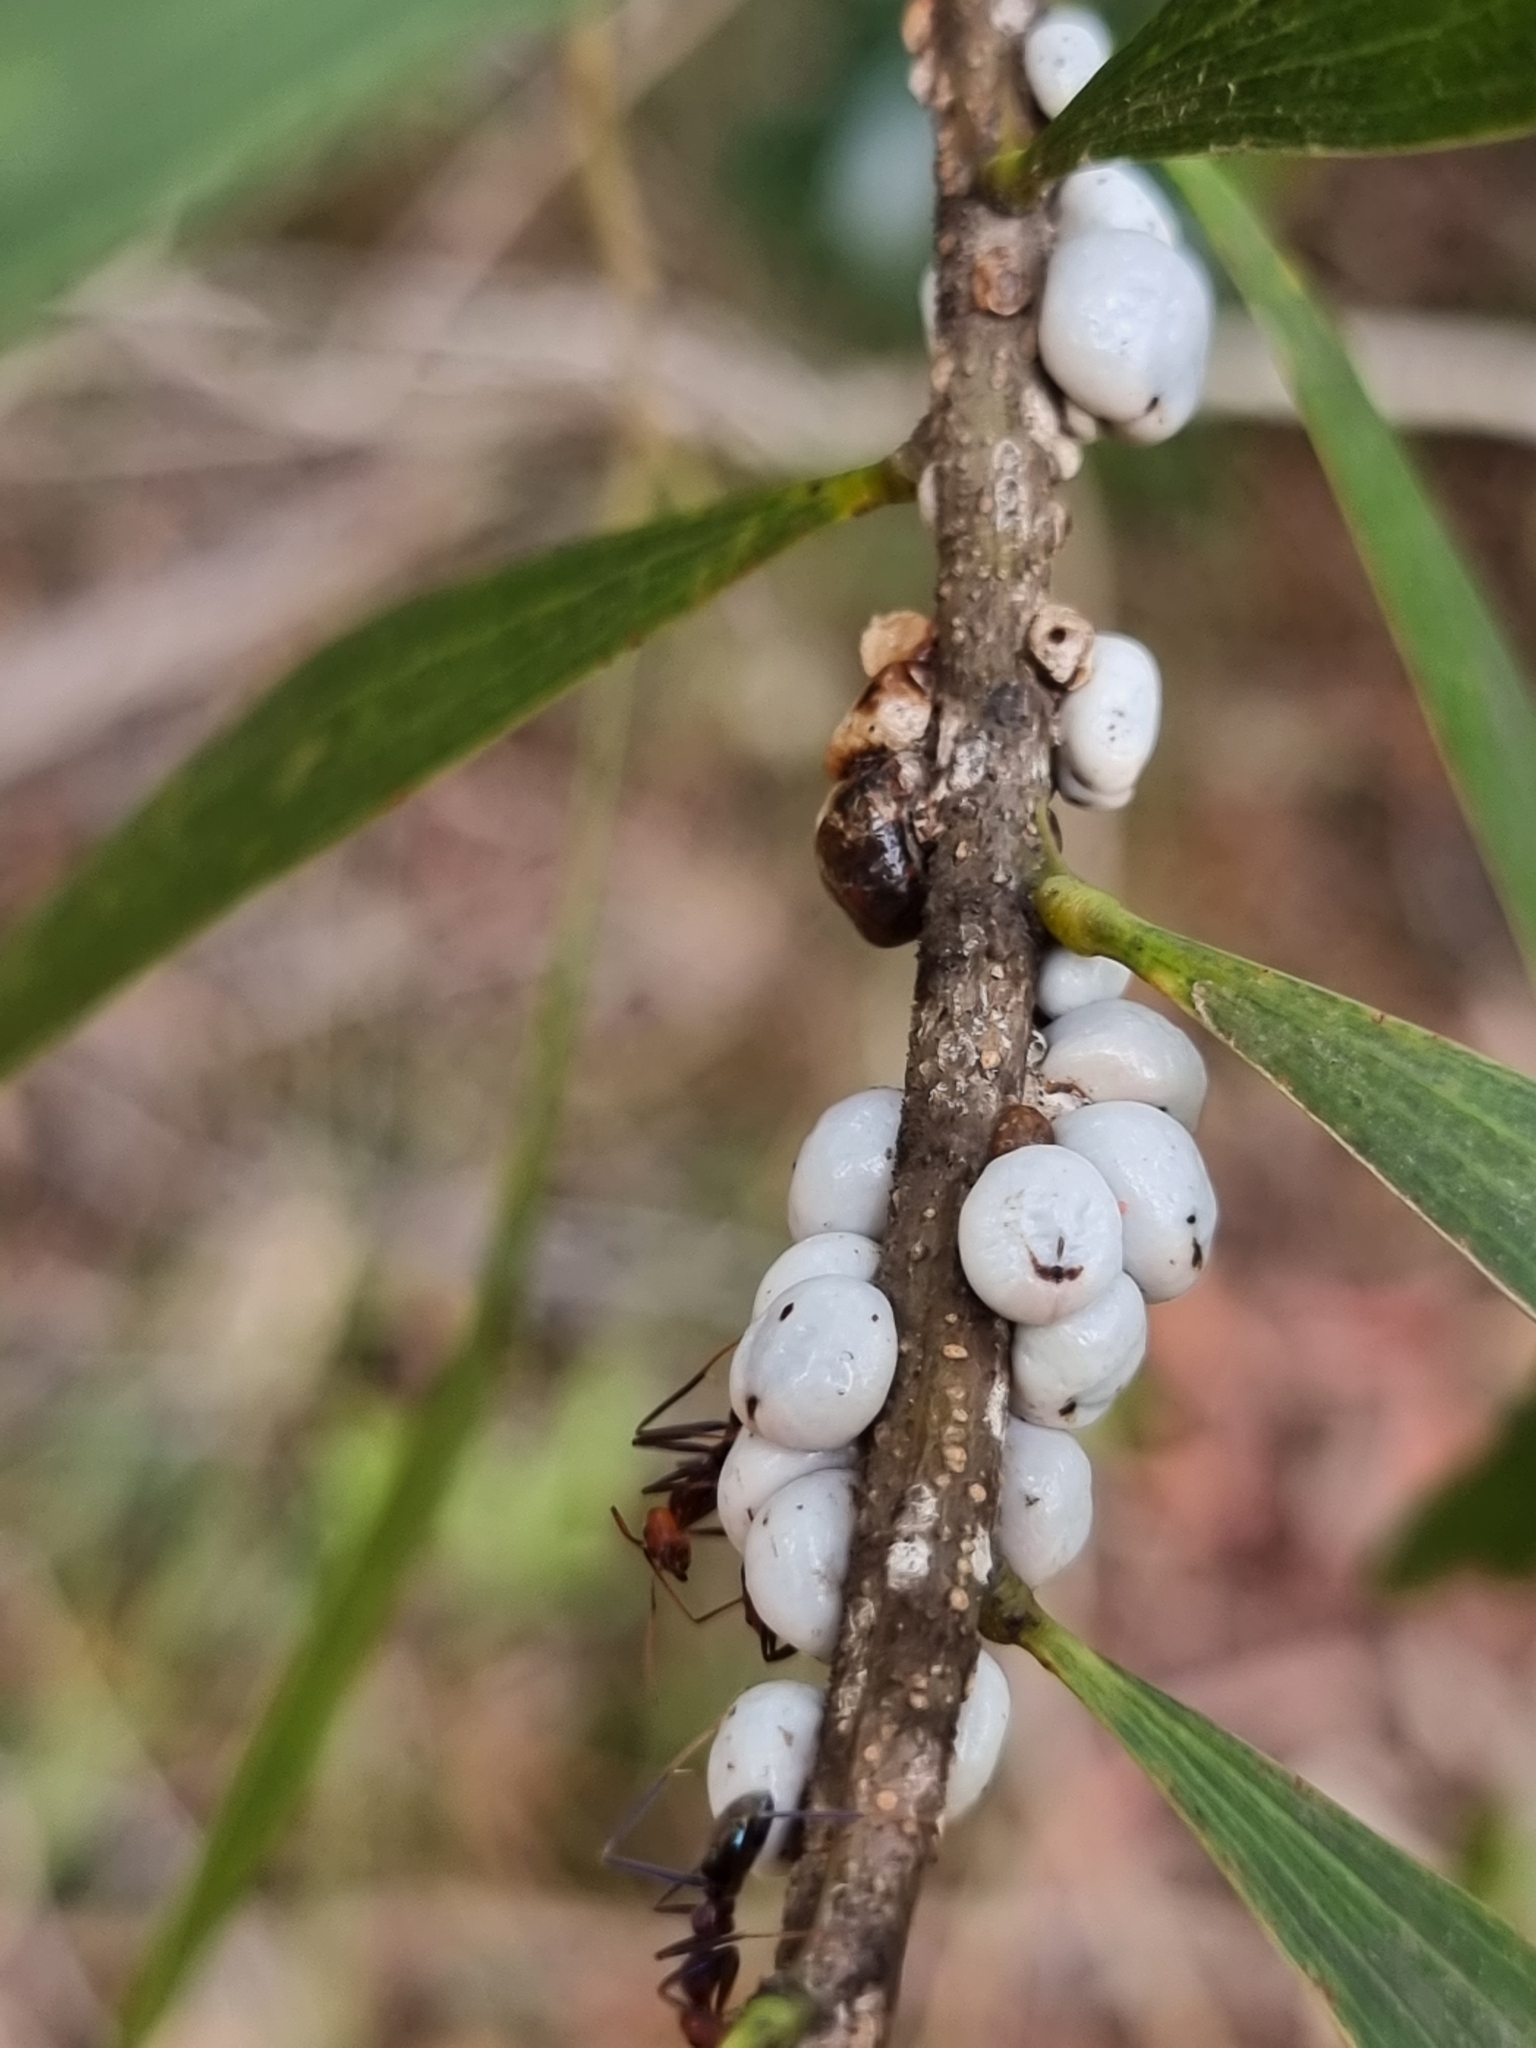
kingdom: Animalia
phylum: Arthropoda
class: Insecta
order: Hemiptera
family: Coccidae
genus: Cryptes
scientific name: Cryptes baccatus
